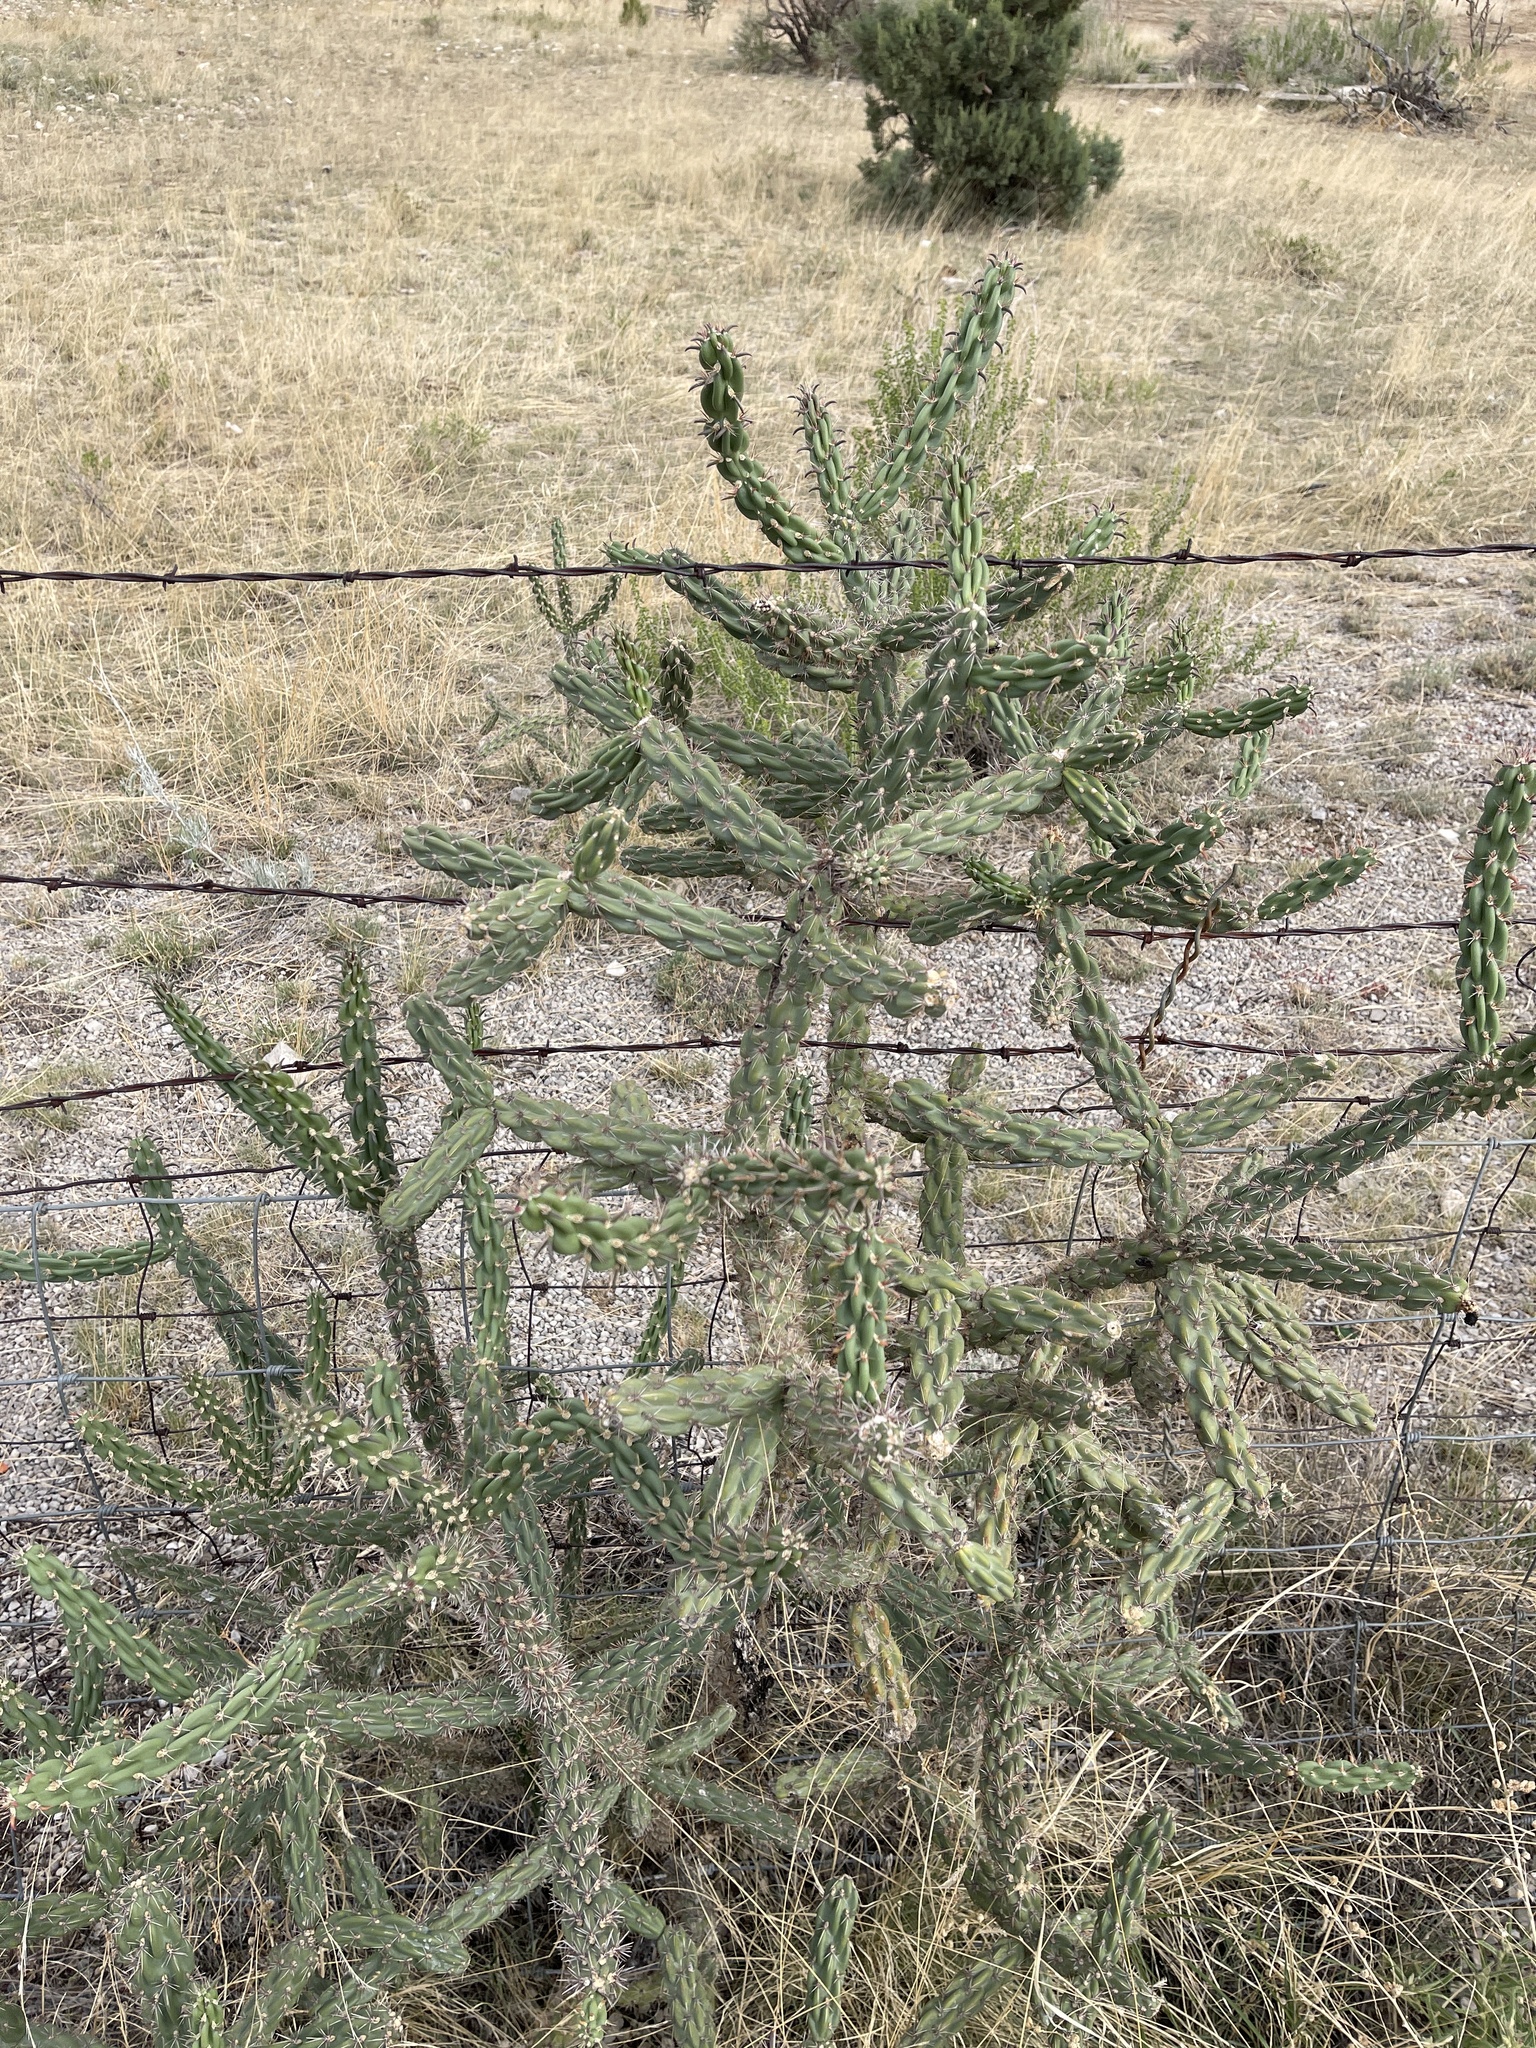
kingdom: Plantae
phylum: Tracheophyta
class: Magnoliopsida
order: Caryophyllales
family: Cactaceae
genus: Cylindropuntia
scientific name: Cylindropuntia imbricata
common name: Candelabrum cactus
